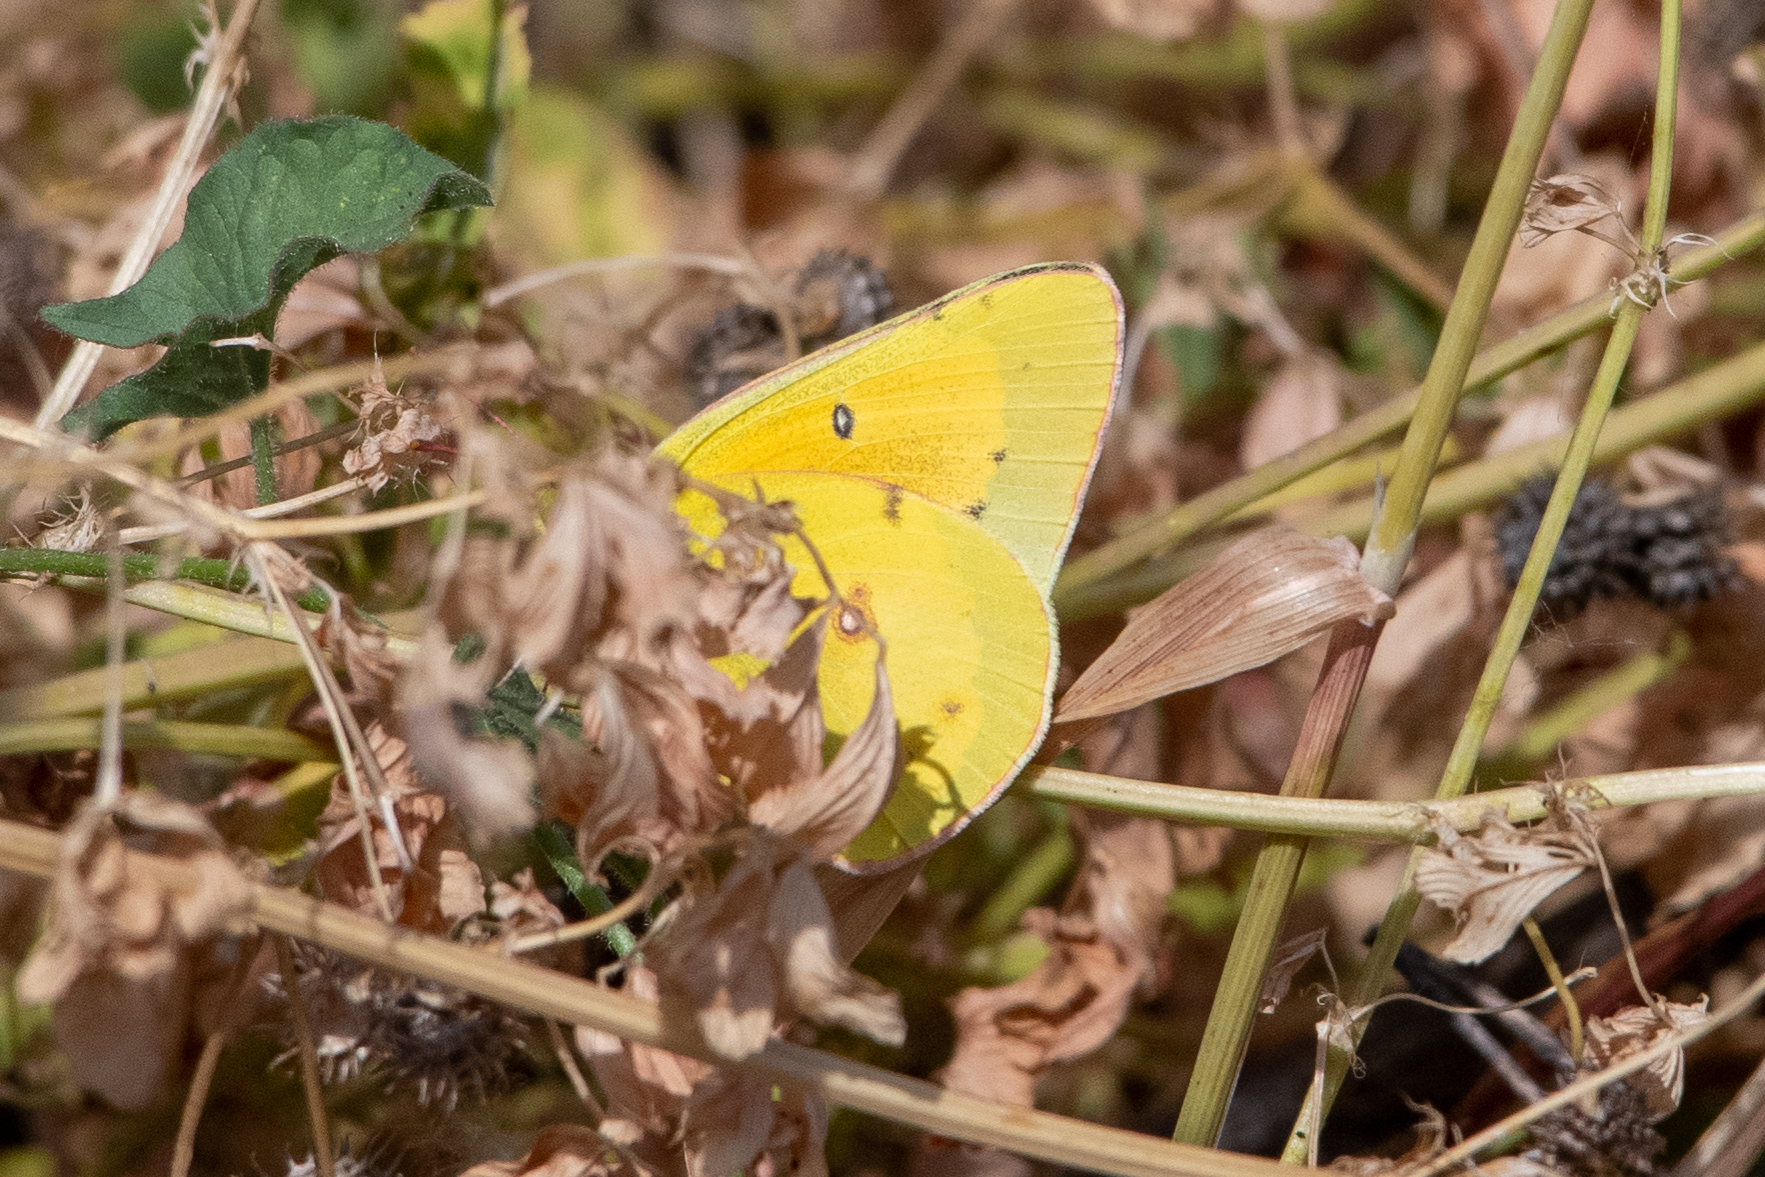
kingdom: Animalia
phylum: Arthropoda
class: Insecta
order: Lepidoptera
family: Pieridae
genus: Colias
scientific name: Colias eurytheme
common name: Alfalfa butterfly
